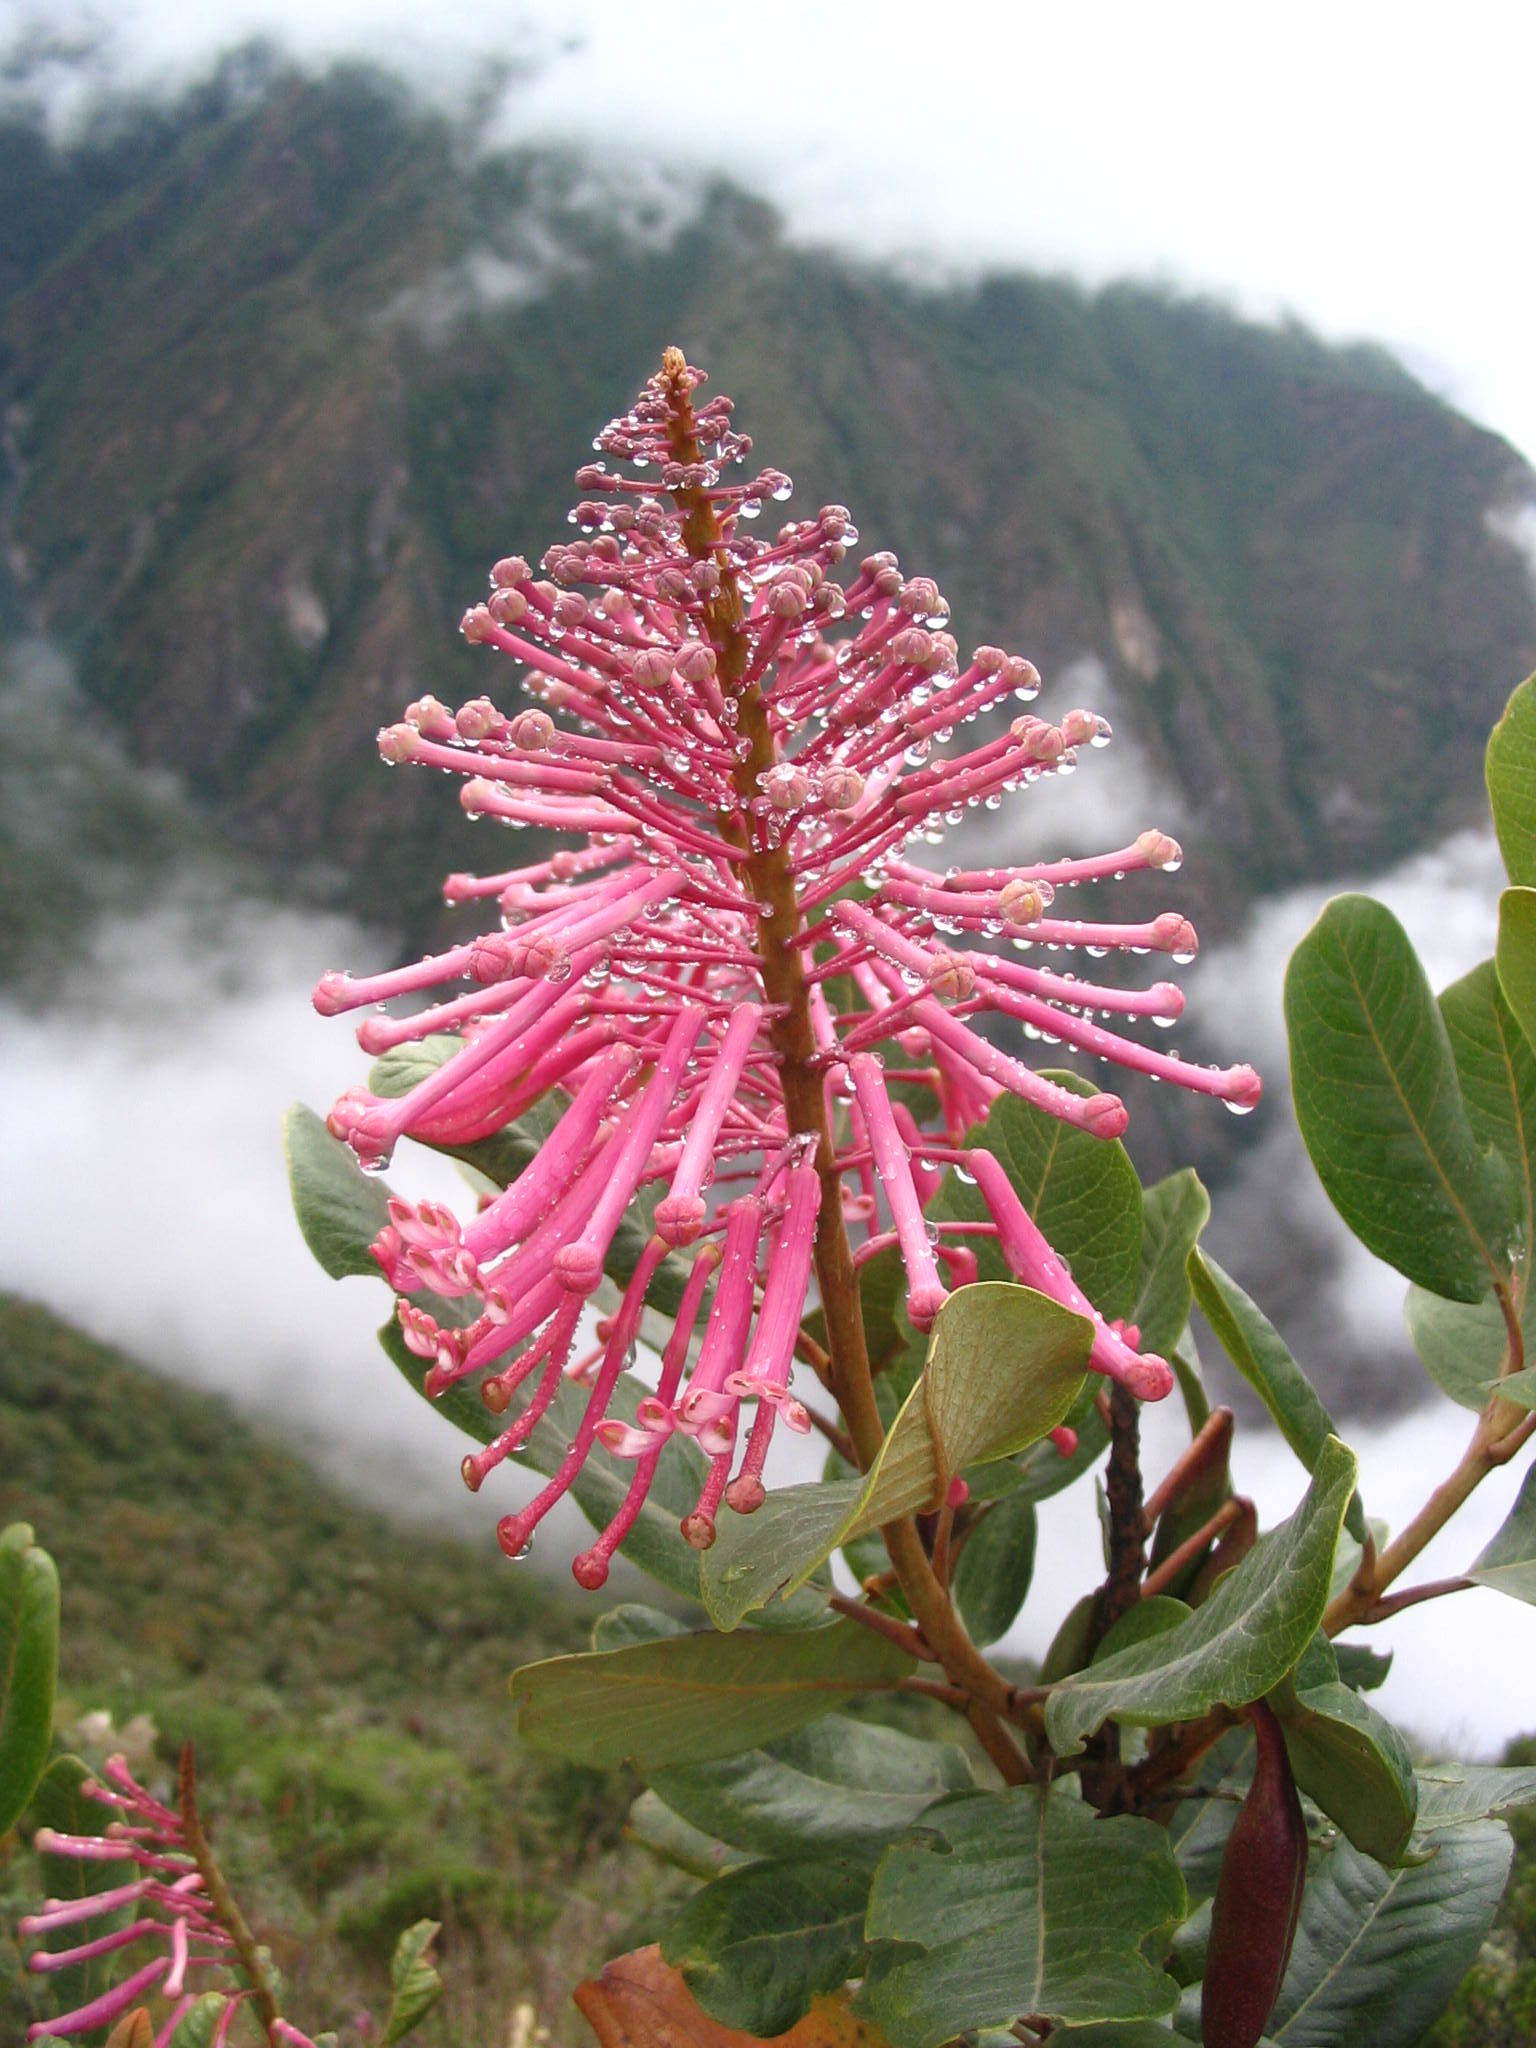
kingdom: Plantae
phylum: Tracheophyta
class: Magnoliopsida
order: Proteales
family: Proteaceae
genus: Oreocallis
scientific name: Oreocallis grandiflora
